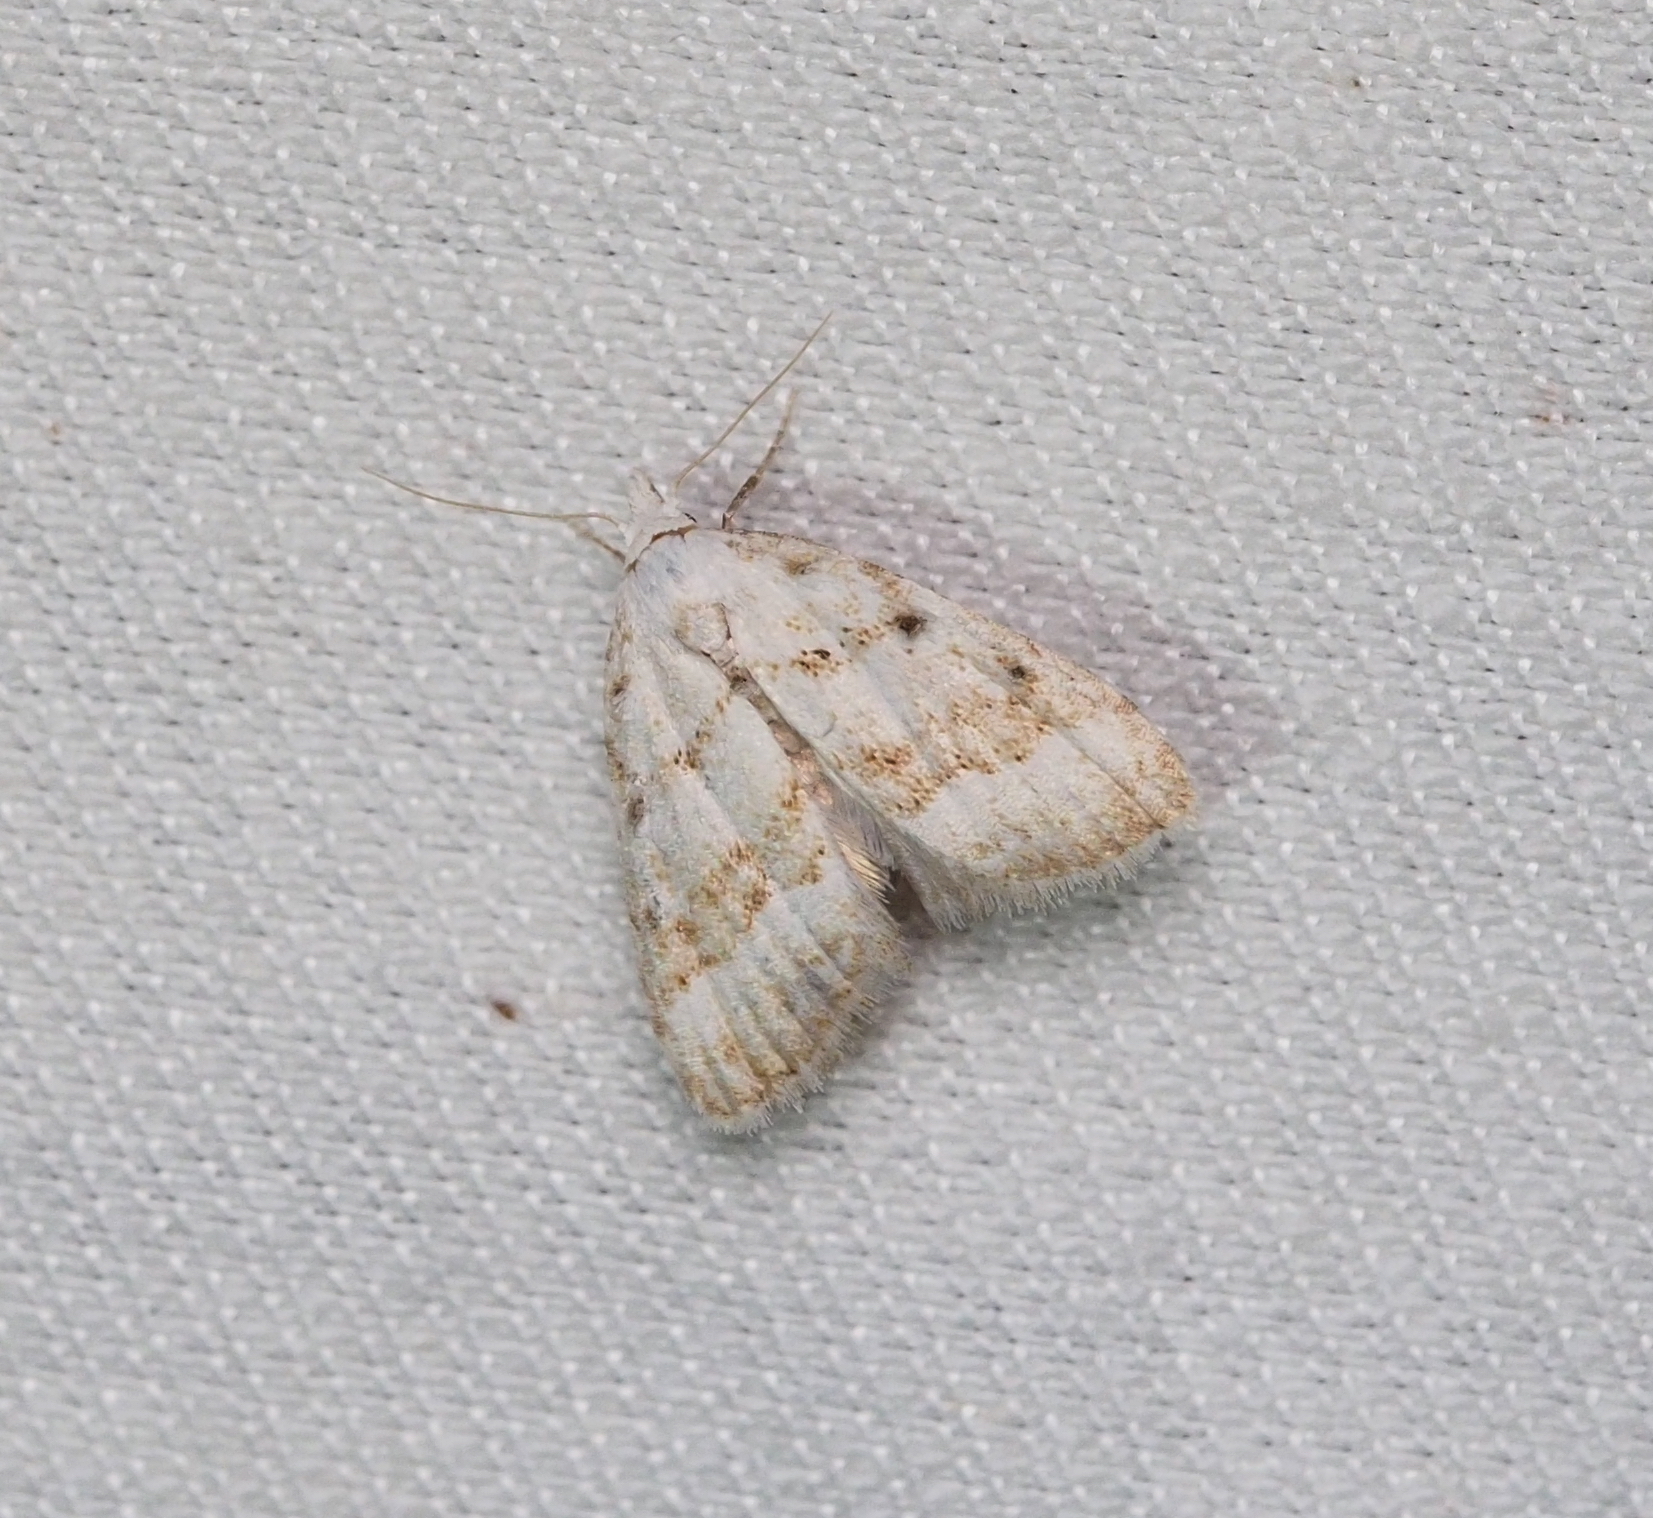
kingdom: Animalia
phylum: Arthropoda
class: Insecta
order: Lepidoptera
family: Nolidae
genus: Nola
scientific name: Nola aerugula
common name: Scarce black arches
